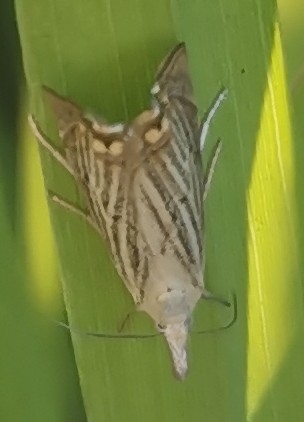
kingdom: Animalia
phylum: Arthropoda
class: Insecta
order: Lepidoptera
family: Crambidae
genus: Chrysoteuchia
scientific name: Chrysoteuchia culmella
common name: Garden grass-veneer
